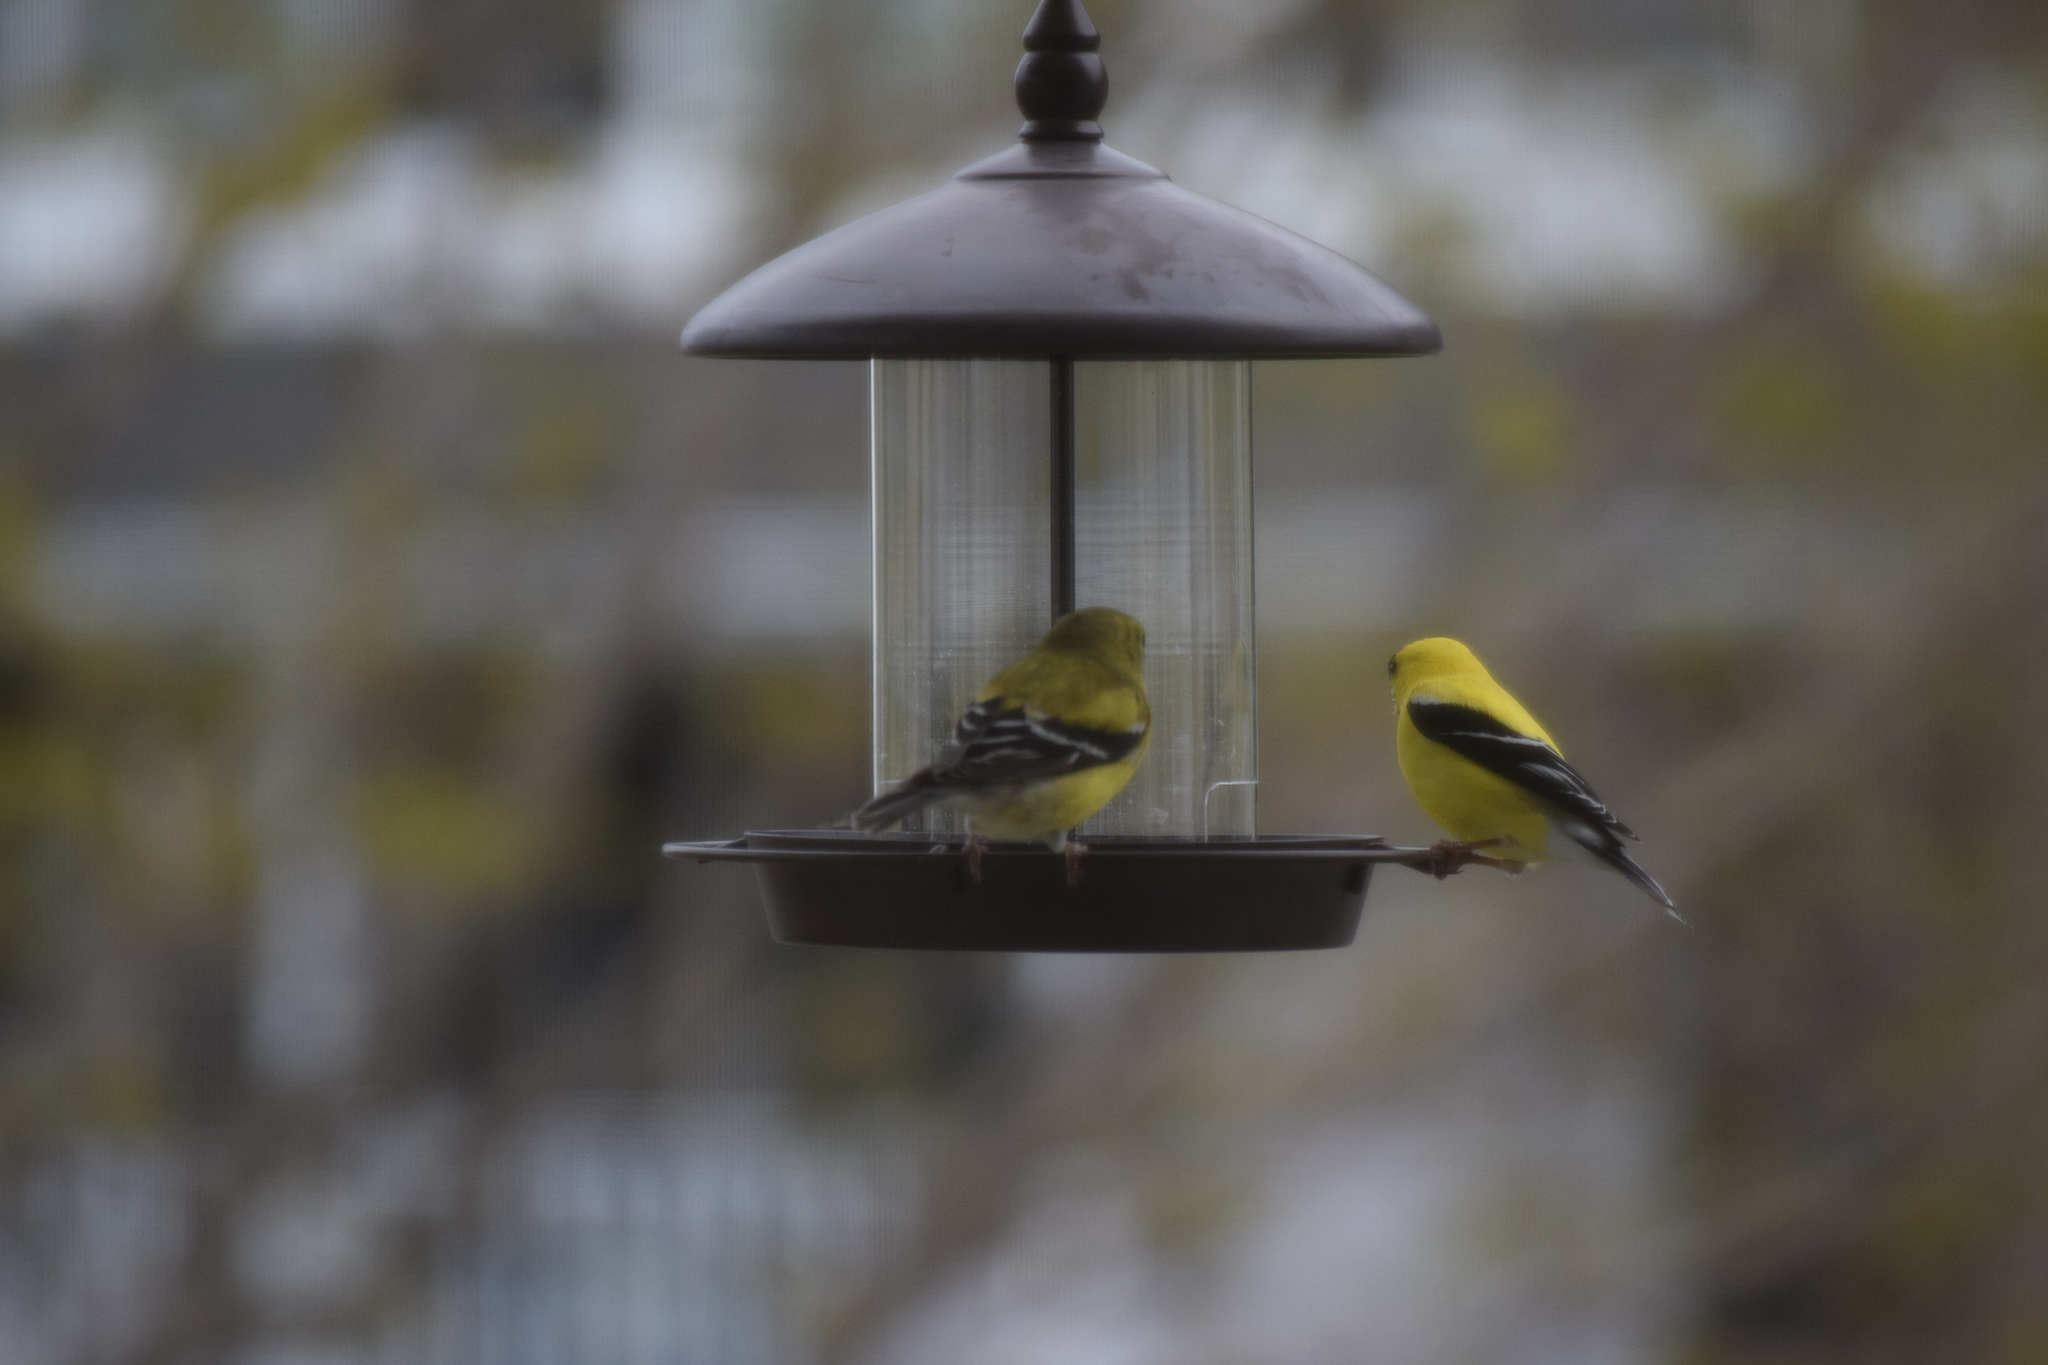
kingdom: Animalia
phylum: Chordata
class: Aves
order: Passeriformes
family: Fringillidae
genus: Spinus
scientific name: Spinus tristis
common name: American goldfinch
